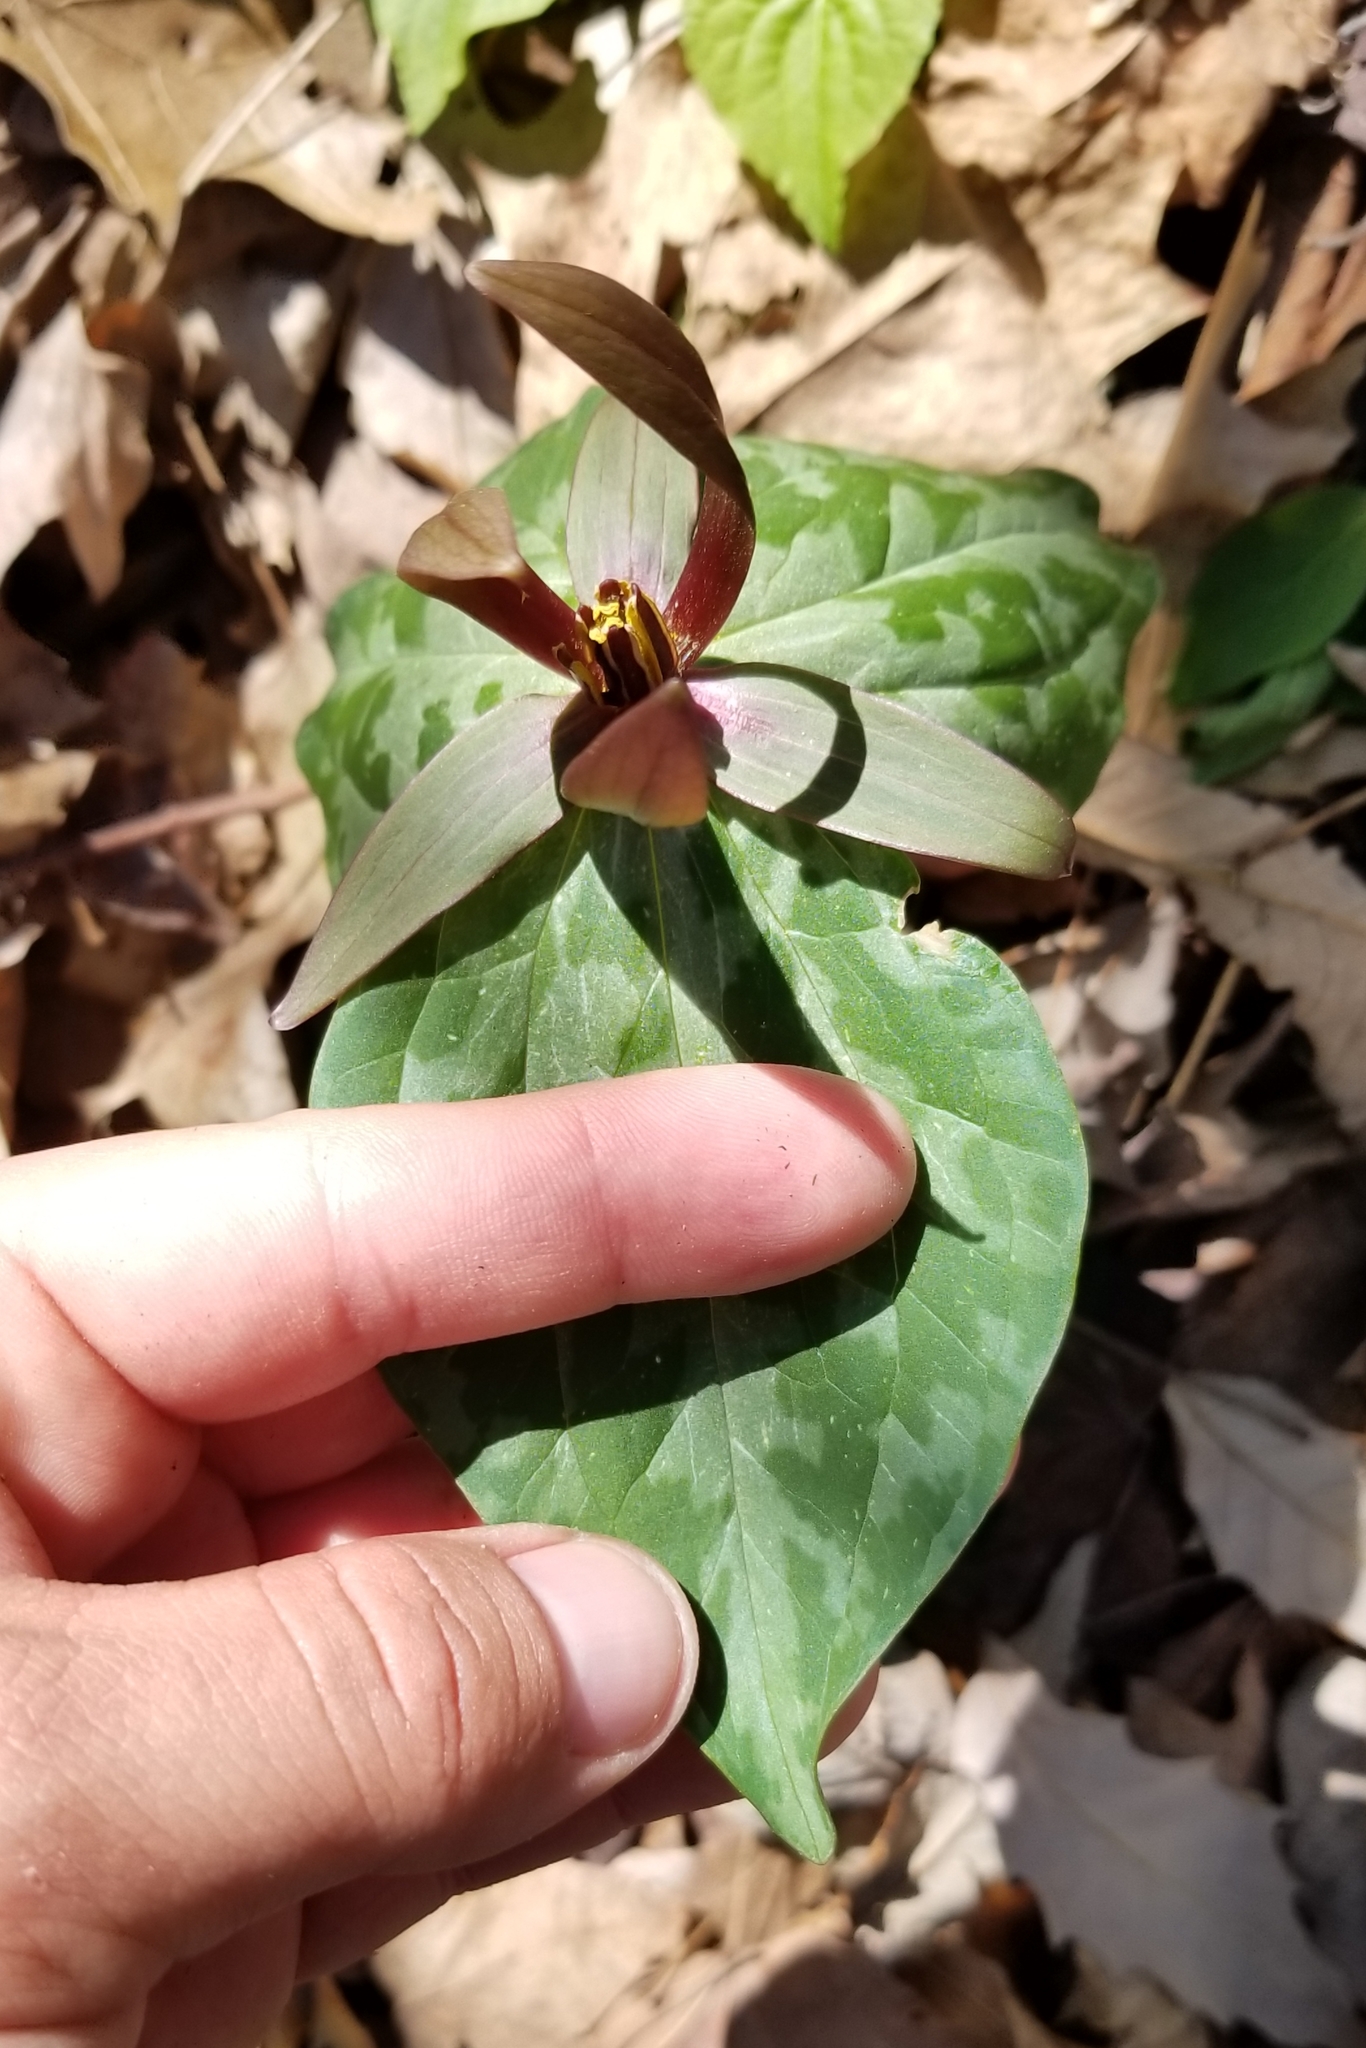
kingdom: Plantae
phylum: Tracheophyta
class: Liliopsida
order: Liliales
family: Melanthiaceae
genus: Trillium
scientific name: Trillium cuneatum
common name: Cuneate trillium
